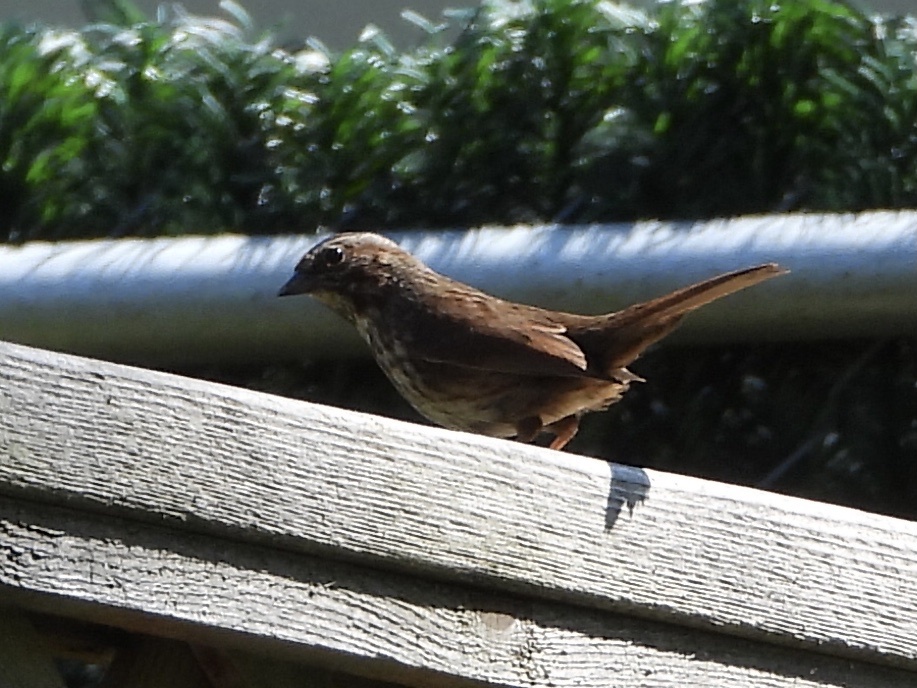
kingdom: Animalia
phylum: Chordata
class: Aves
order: Passeriformes
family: Passerellidae
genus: Melospiza
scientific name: Melospiza melodia
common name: Song sparrow
